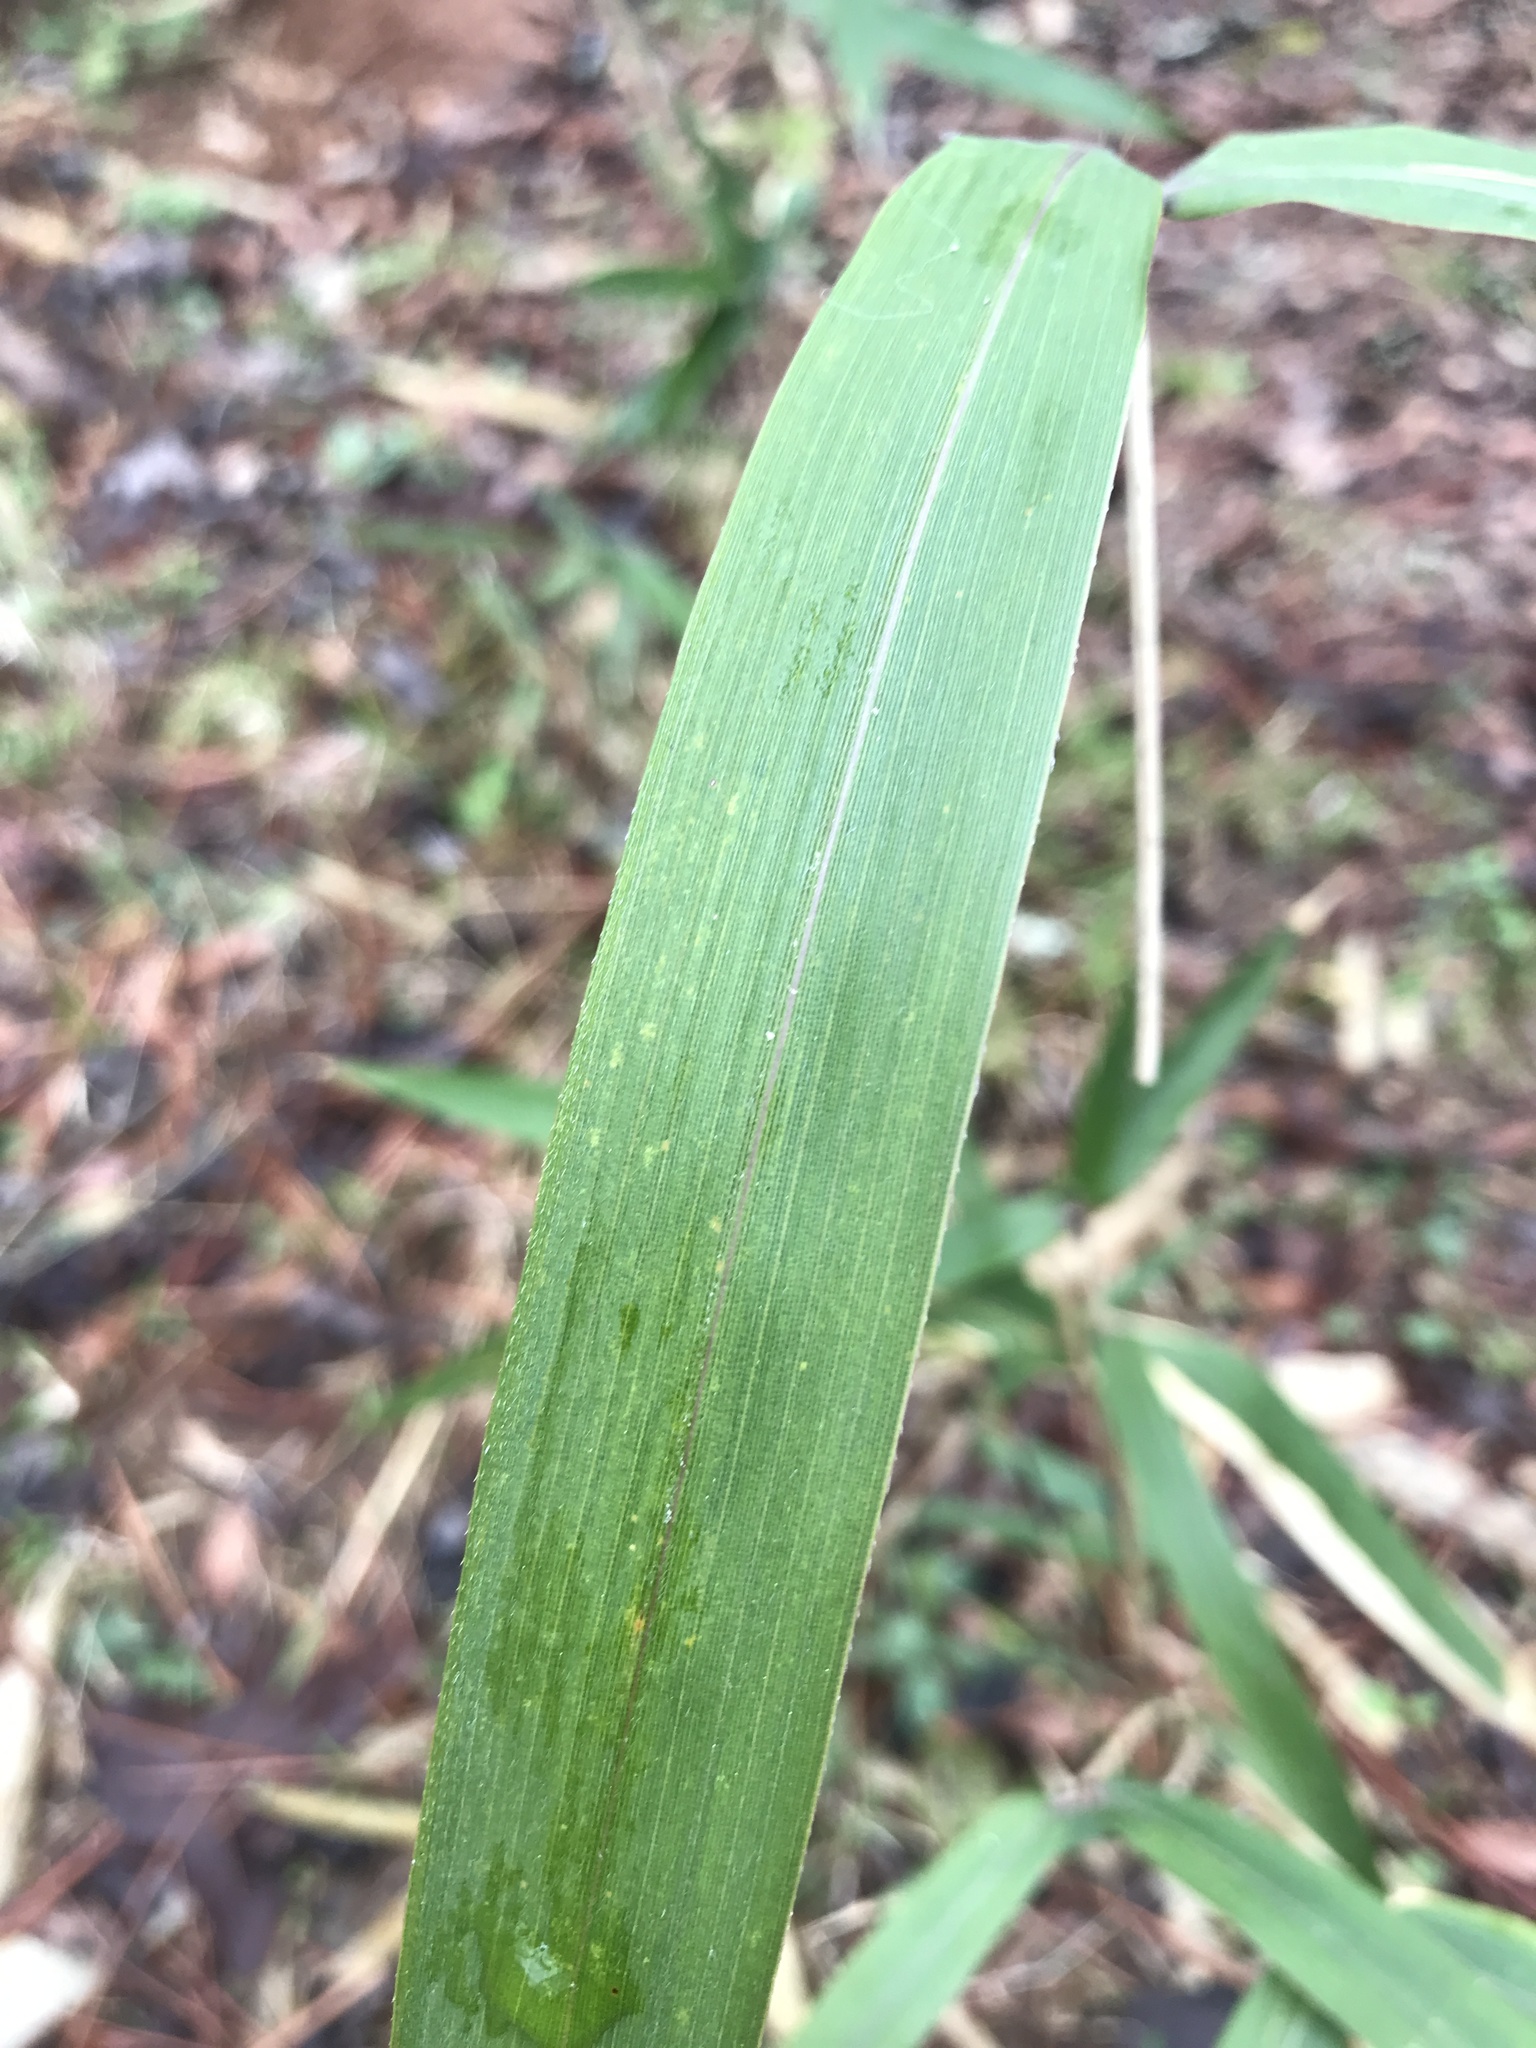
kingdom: Plantae
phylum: Tracheophyta
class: Liliopsida
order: Poales
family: Poaceae
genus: Arundinaria
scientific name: Arundinaria gigantea
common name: Giant cane
